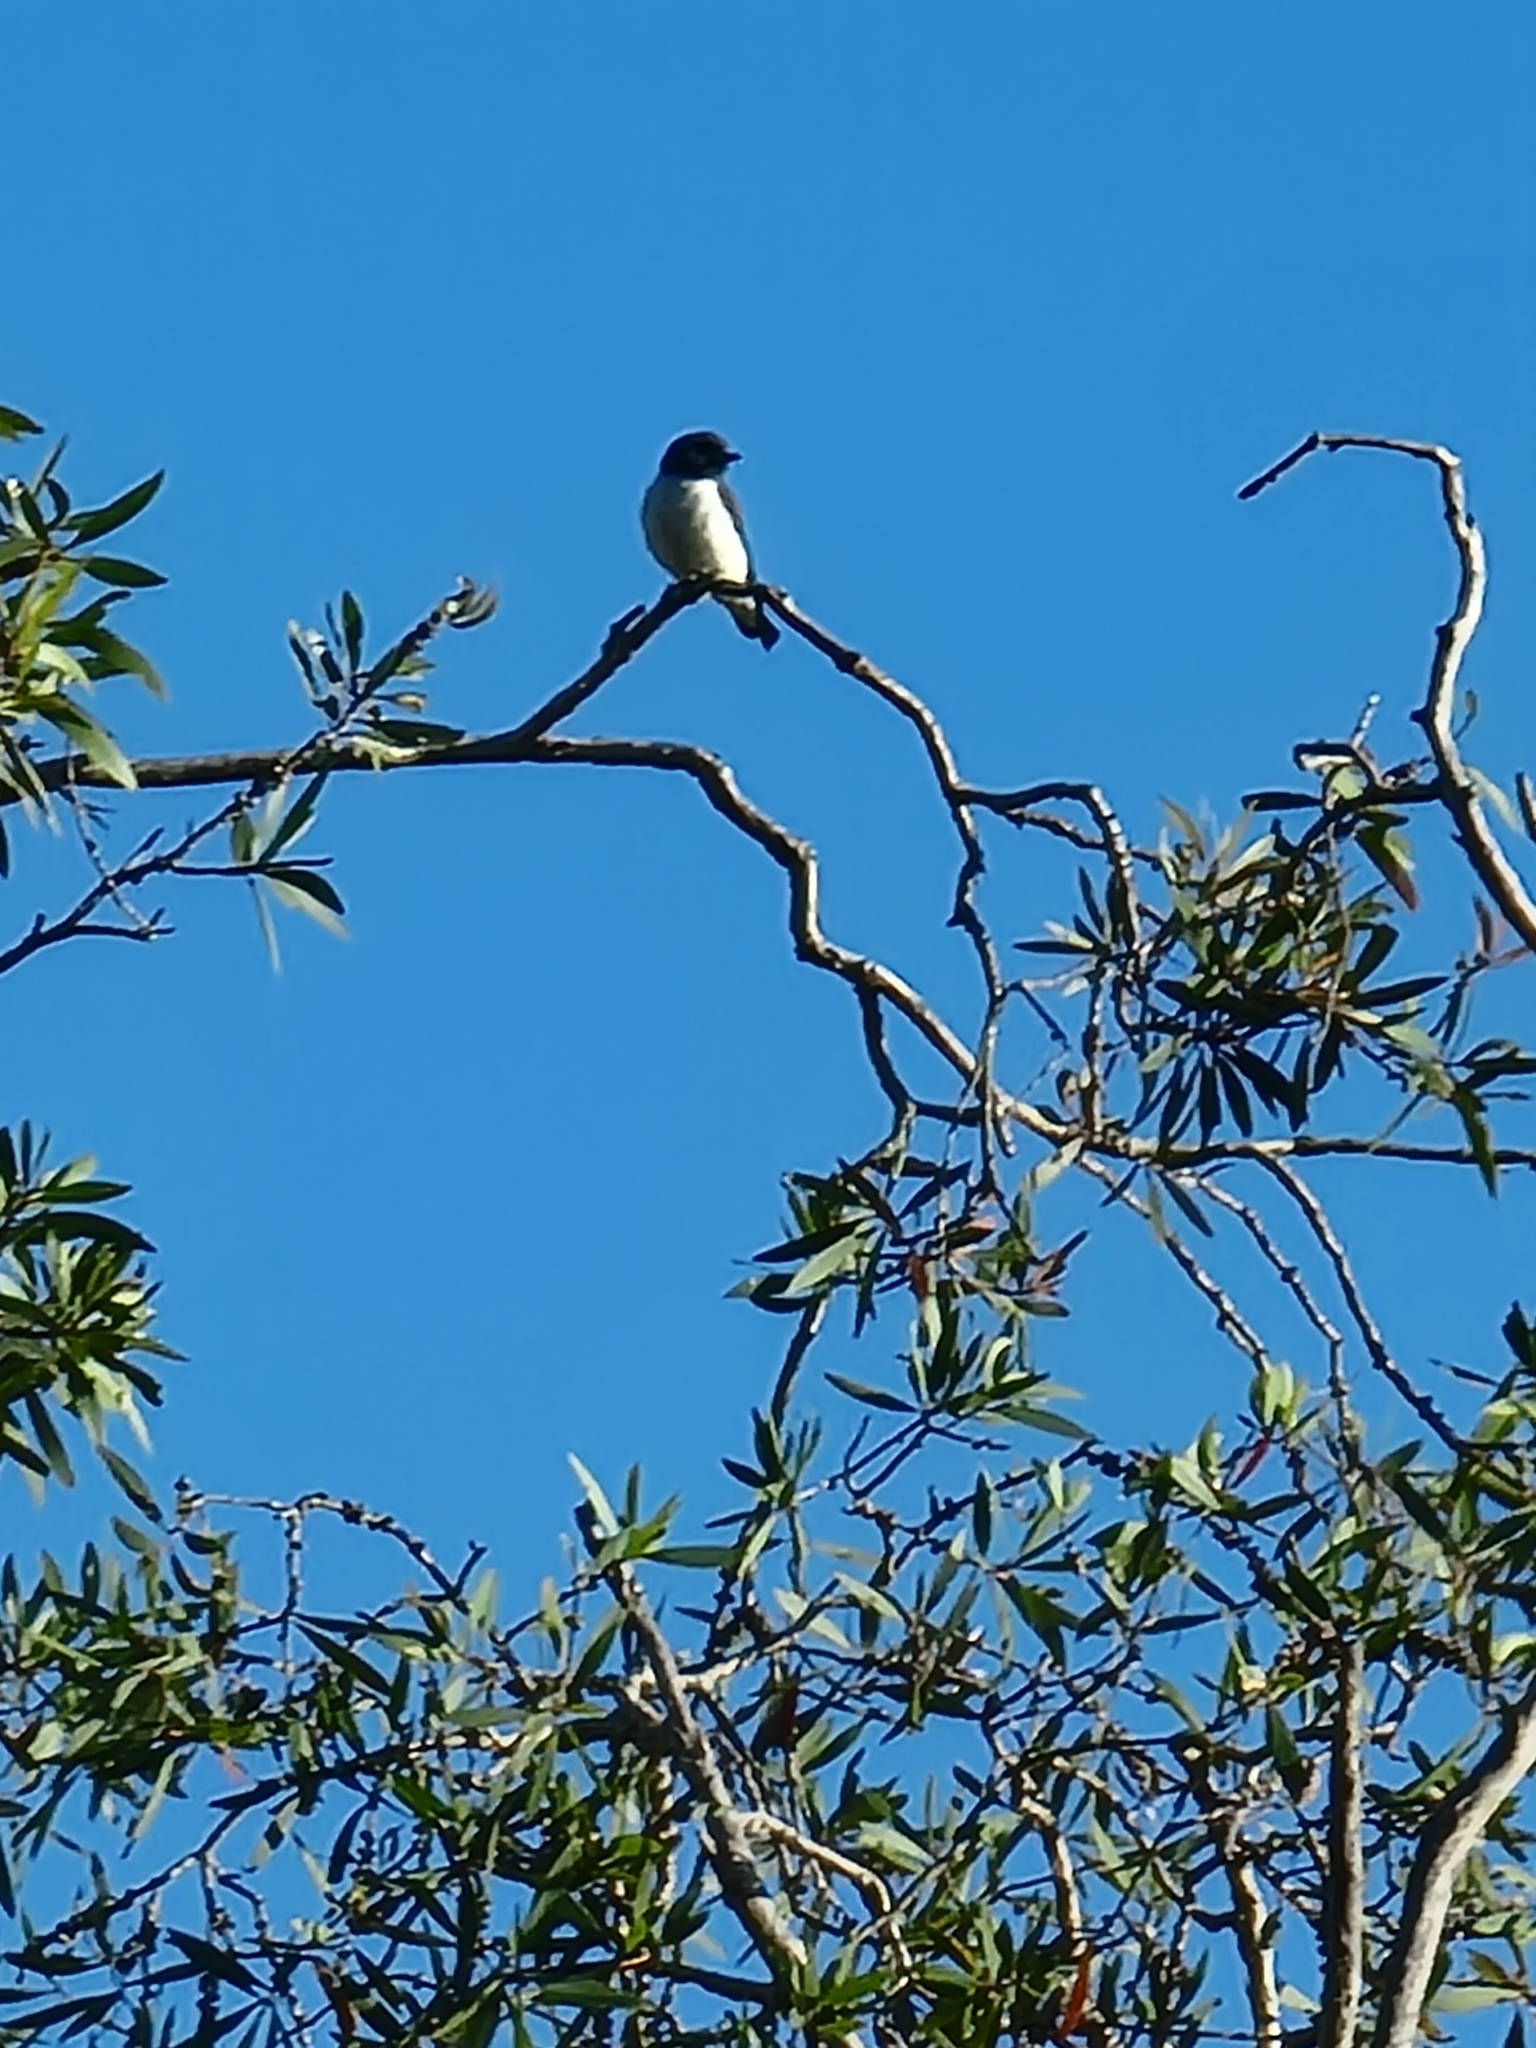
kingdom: Animalia
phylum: Chordata
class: Aves
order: Passeriformes
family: Artamidae
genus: Artamus
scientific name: Artamus leucoryn
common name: White-breasted woodswallow
